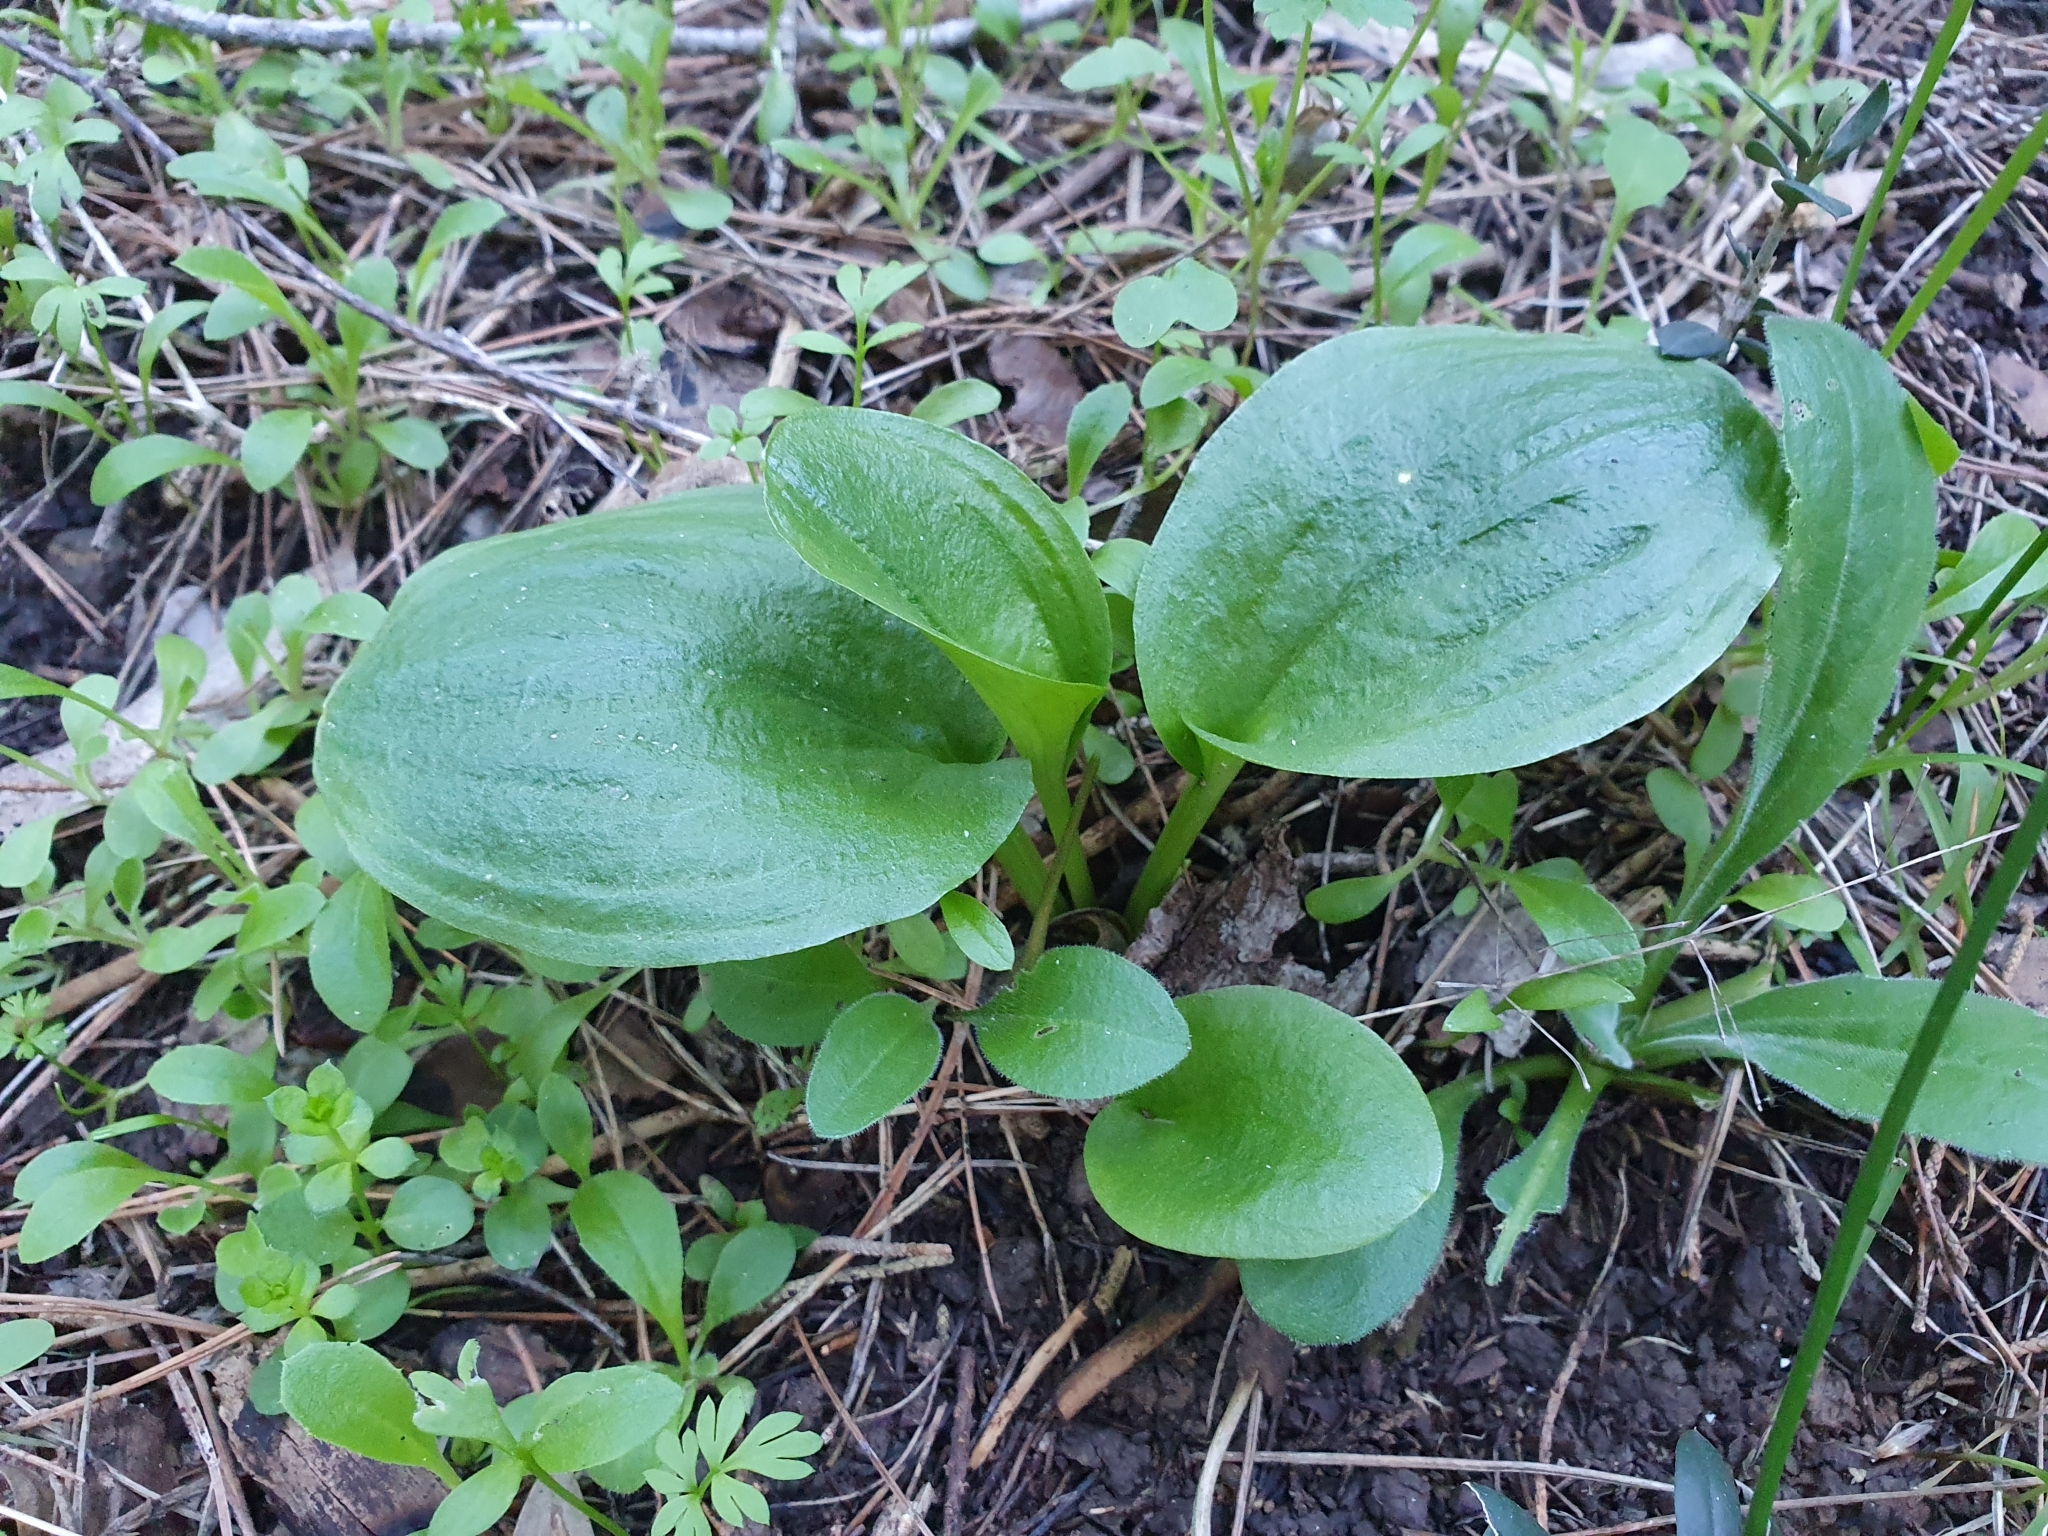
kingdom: Plantae
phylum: Tracheophyta
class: Liliopsida
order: Alismatales
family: Araceae
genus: Ambrosina
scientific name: Ambrosina bassii
